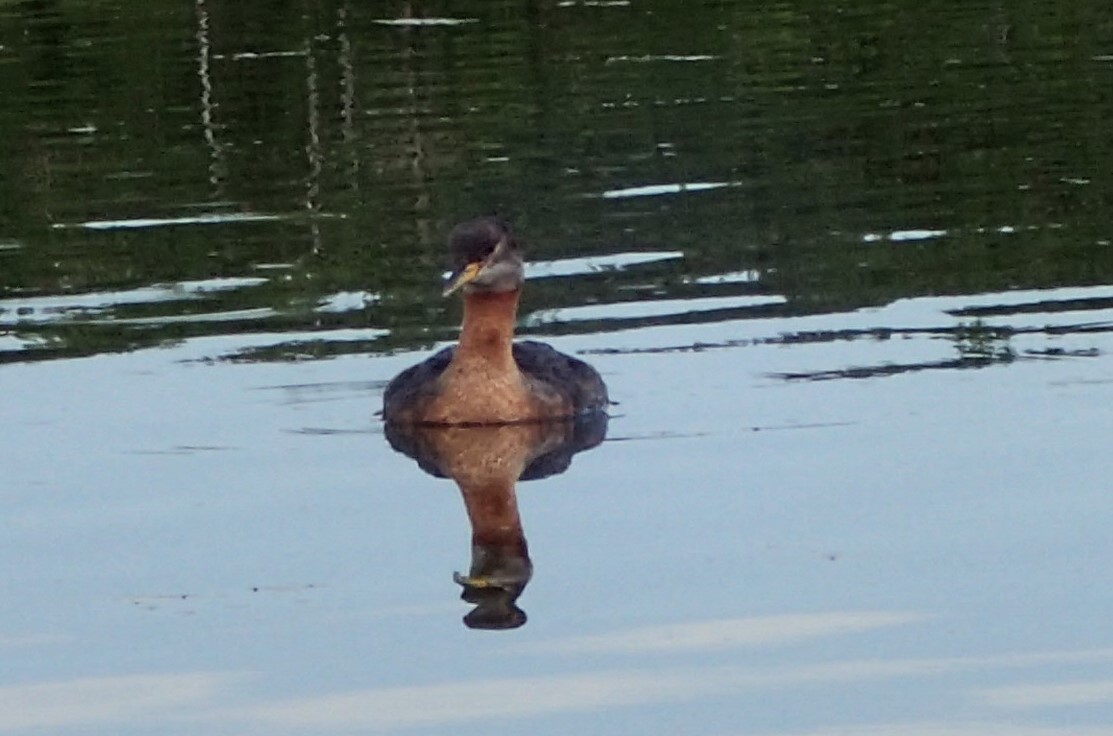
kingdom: Animalia
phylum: Chordata
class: Aves
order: Podicipediformes
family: Podicipedidae
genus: Podiceps
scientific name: Podiceps grisegena
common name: Red-necked grebe
